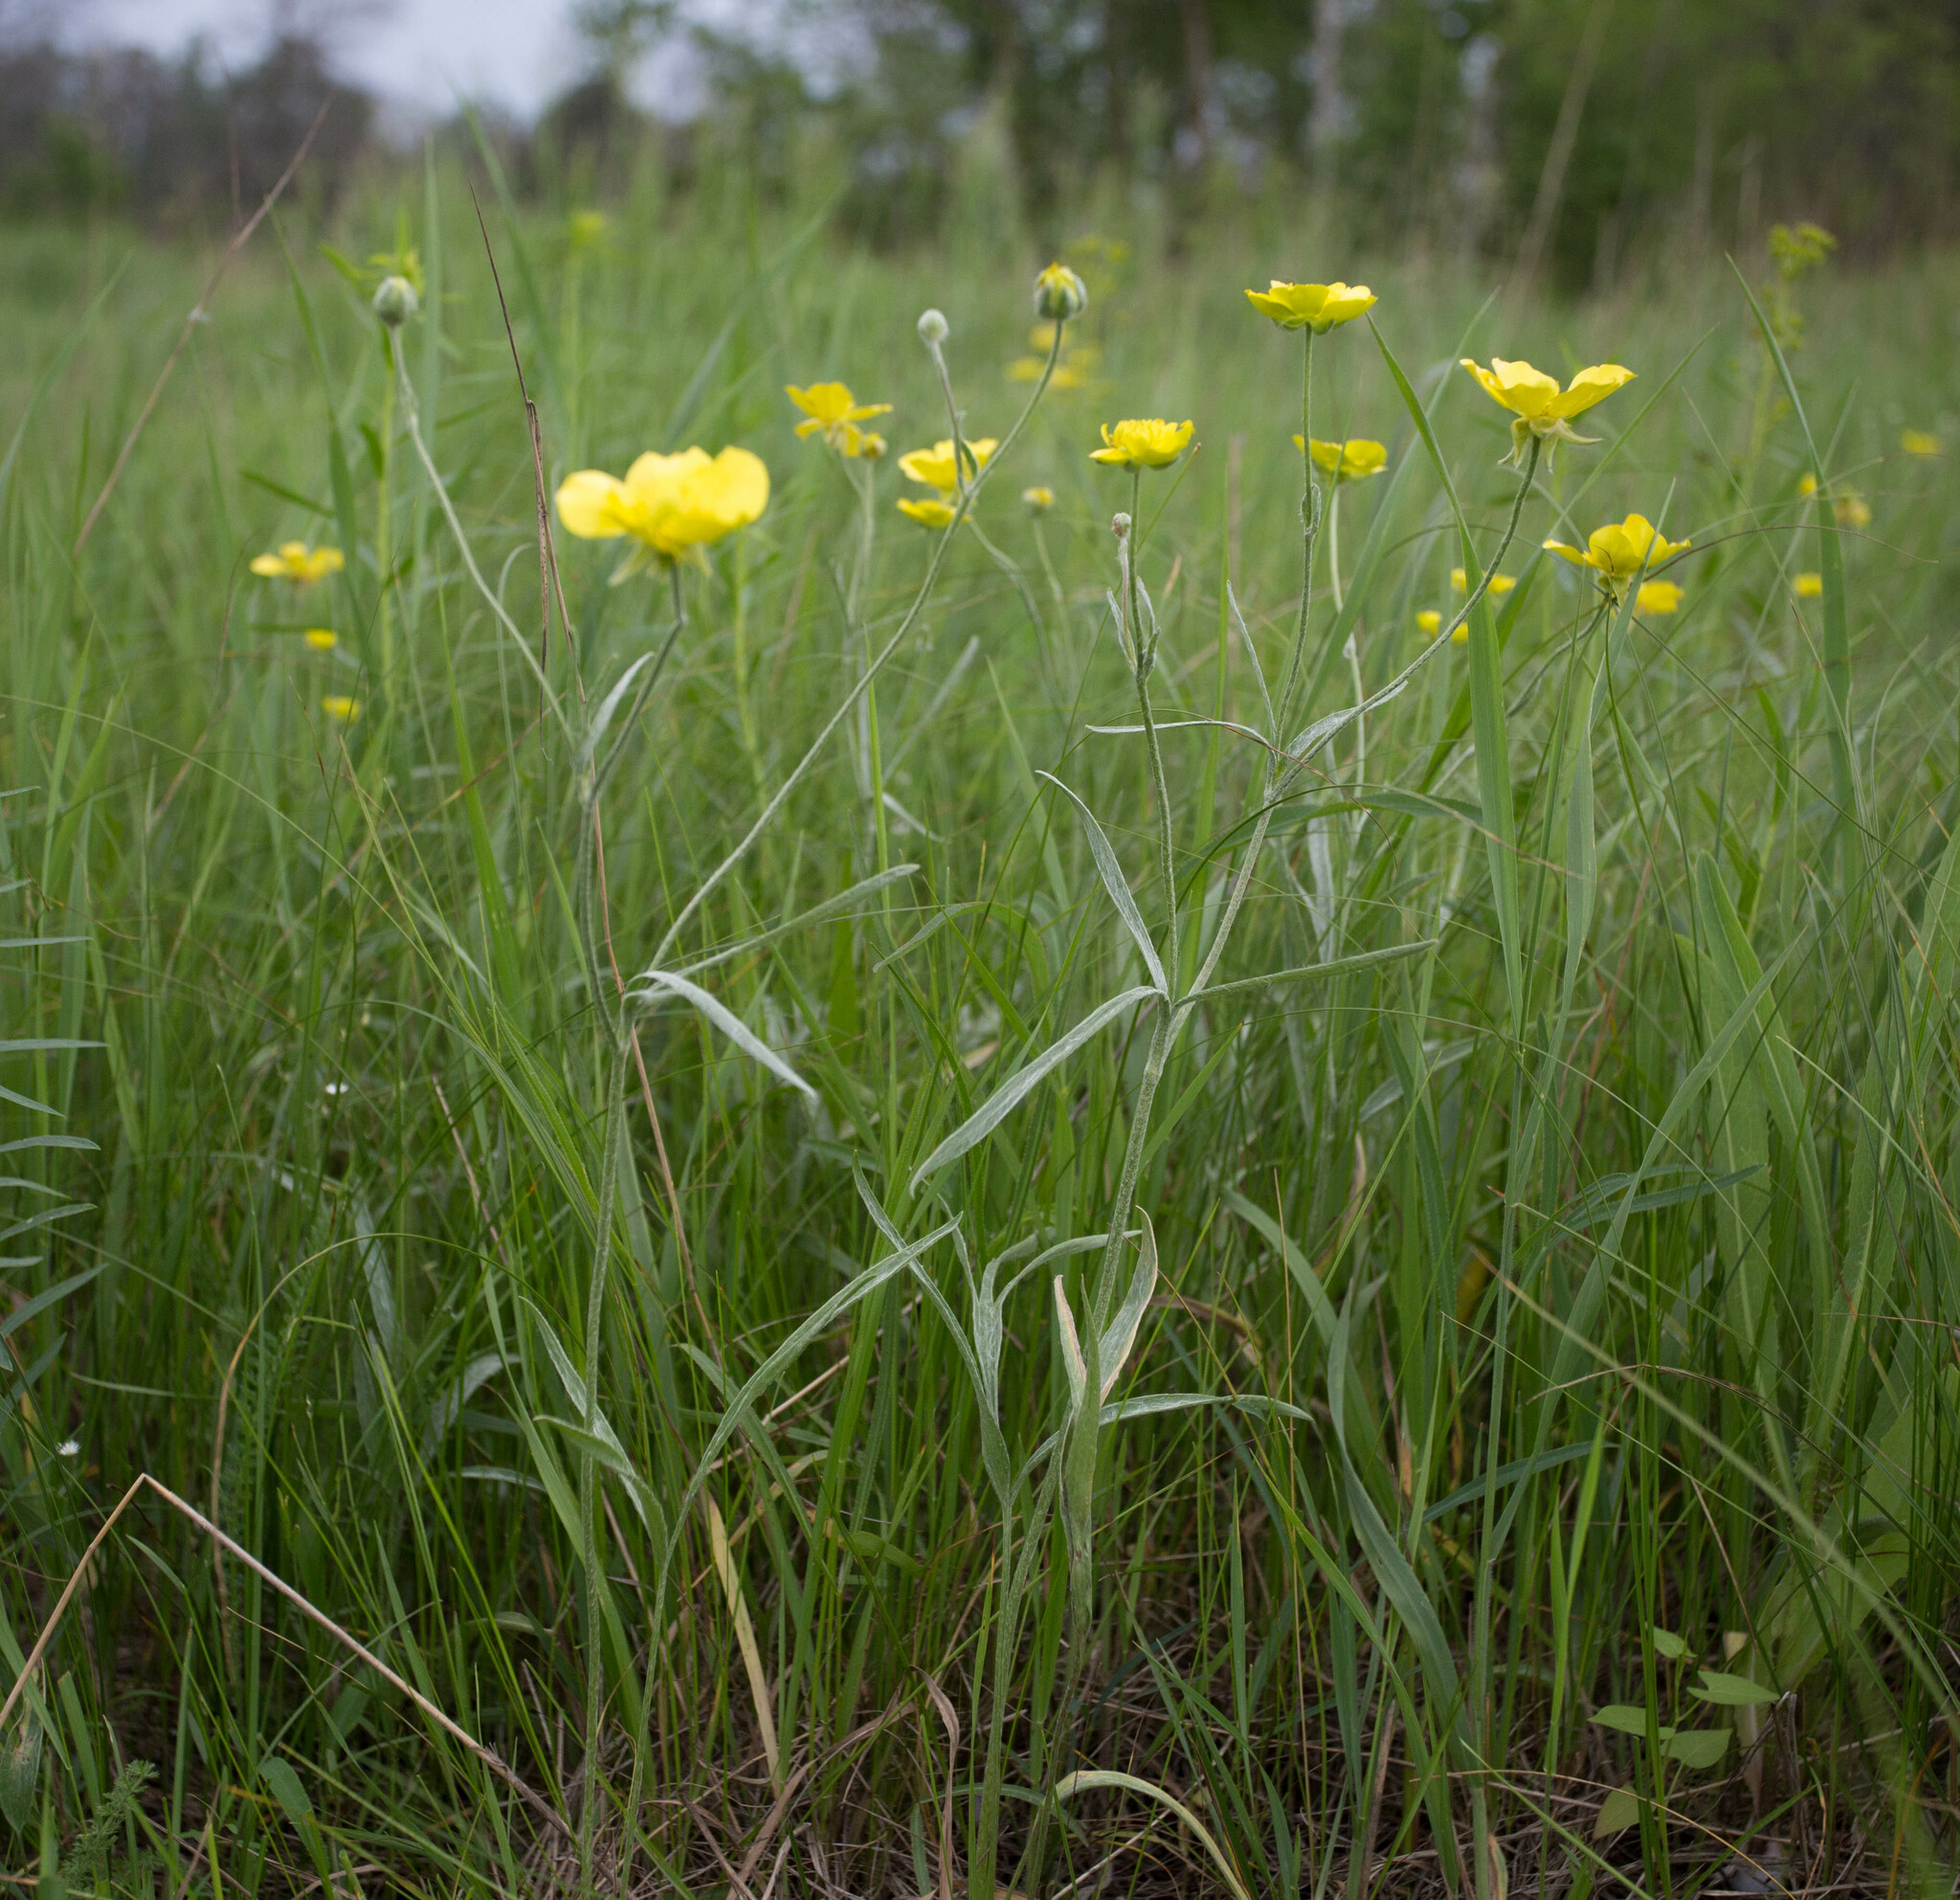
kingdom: Plantae
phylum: Tracheophyta
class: Magnoliopsida
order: Ranunculales
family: Ranunculaceae
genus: Ranunculus
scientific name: Ranunculus illyricus
